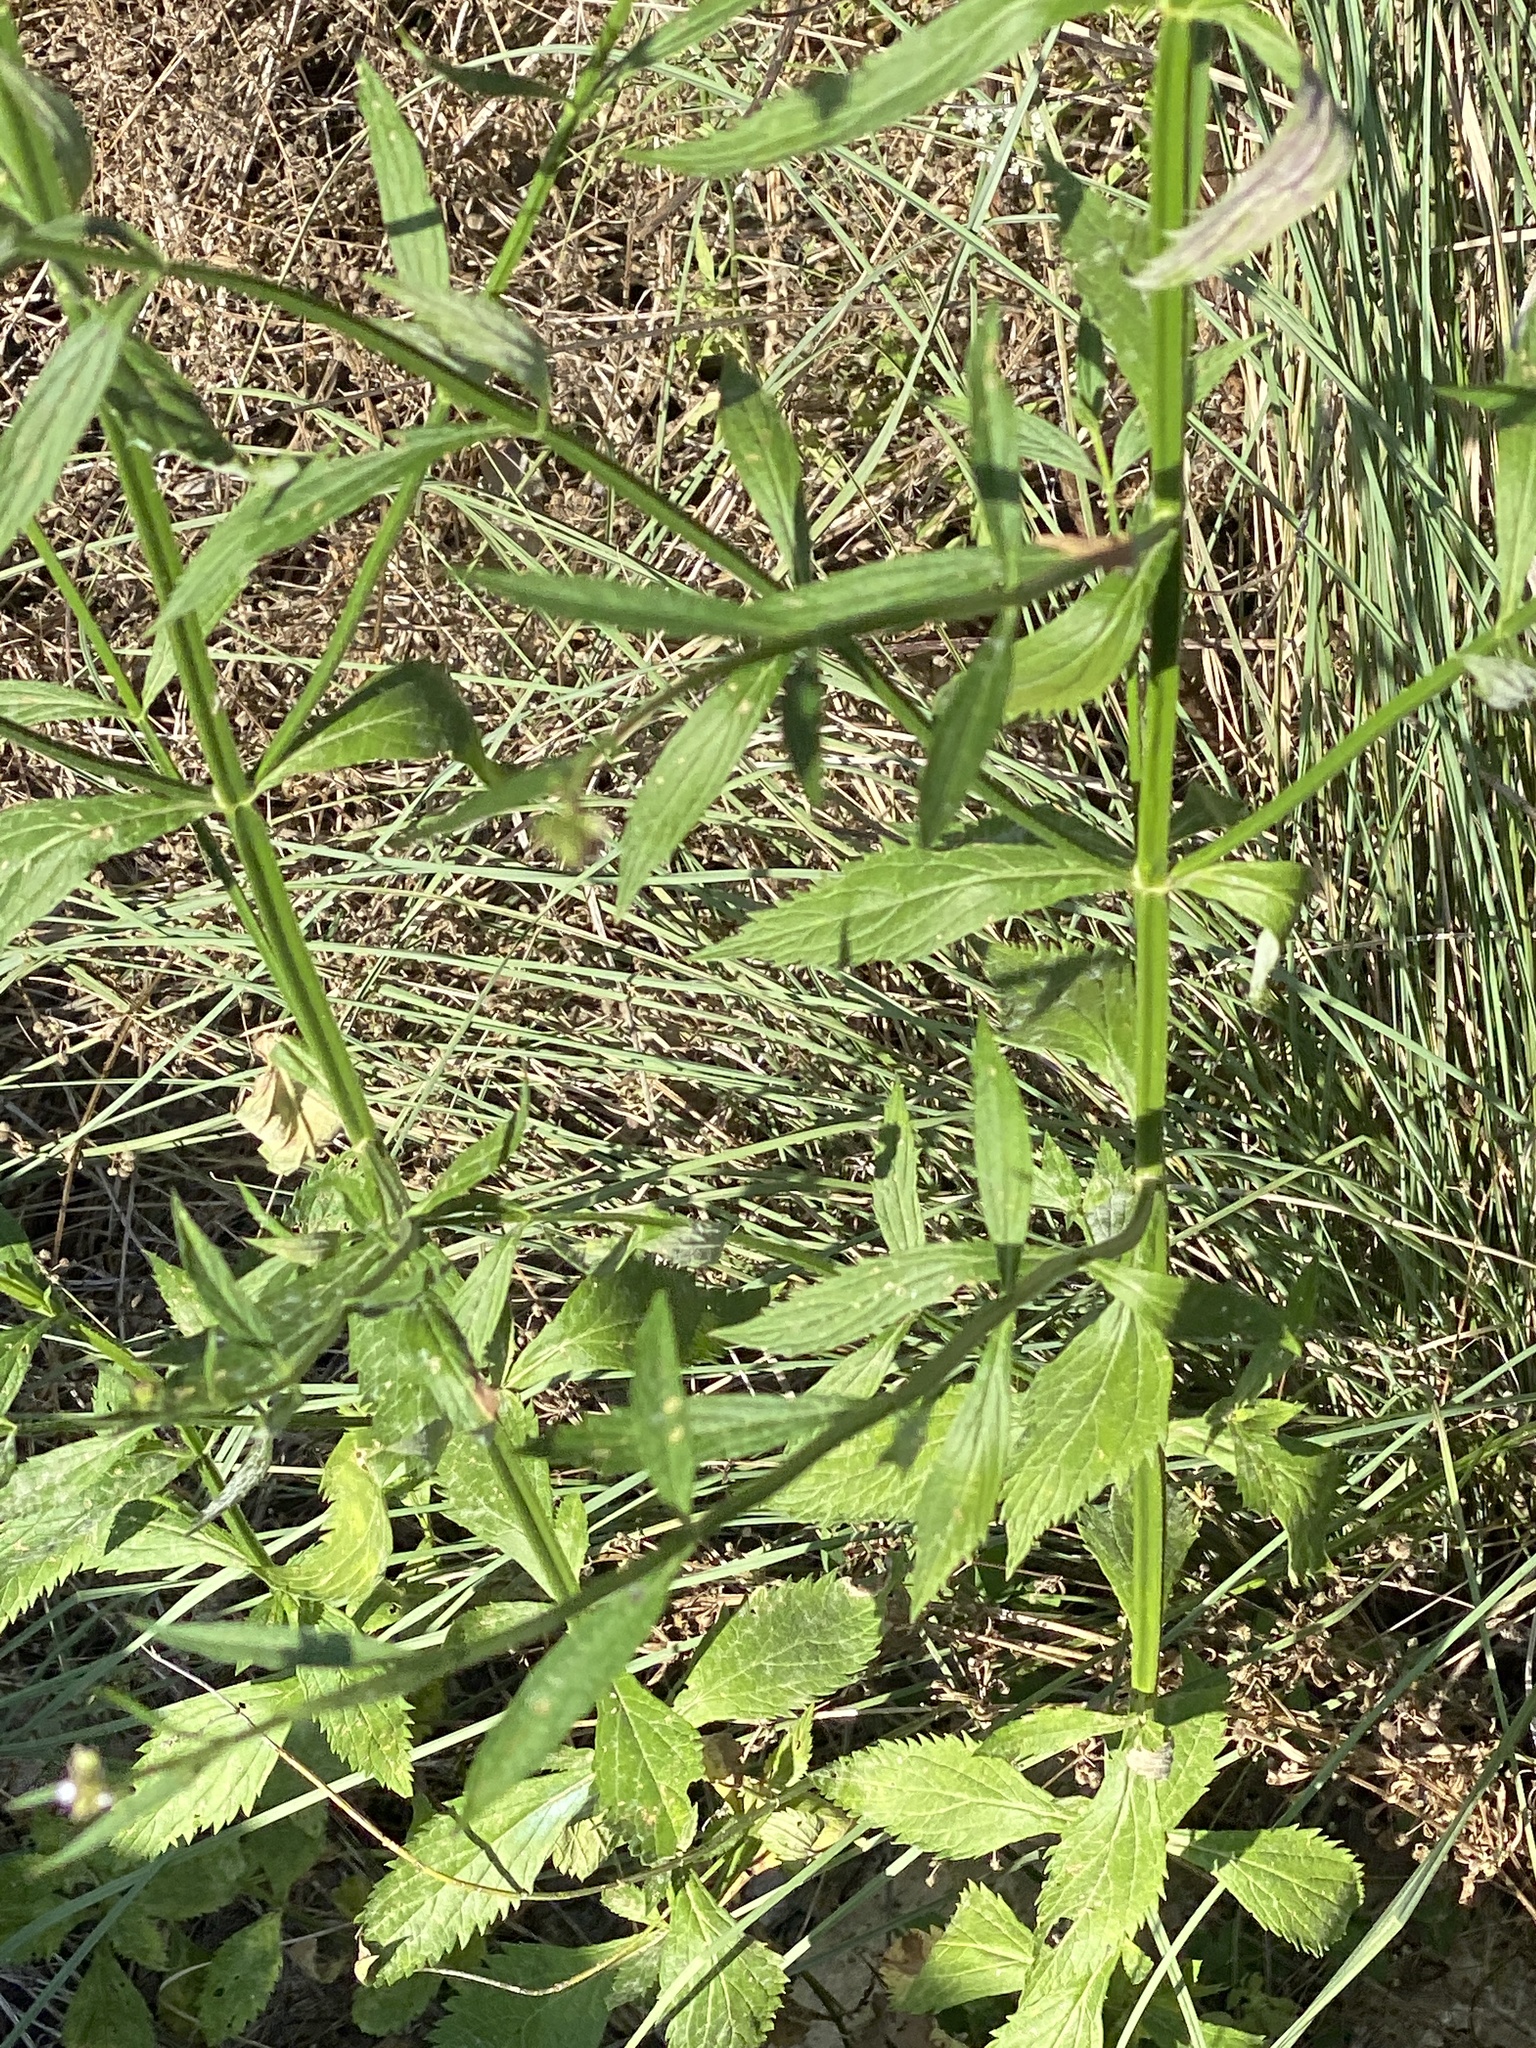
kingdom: Plantae
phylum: Tracheophyta
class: Magnoliopsida
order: Lamiales
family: Verbenaceae
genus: Verbena
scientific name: Verbena brasiliensis
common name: Brazilian vervain
